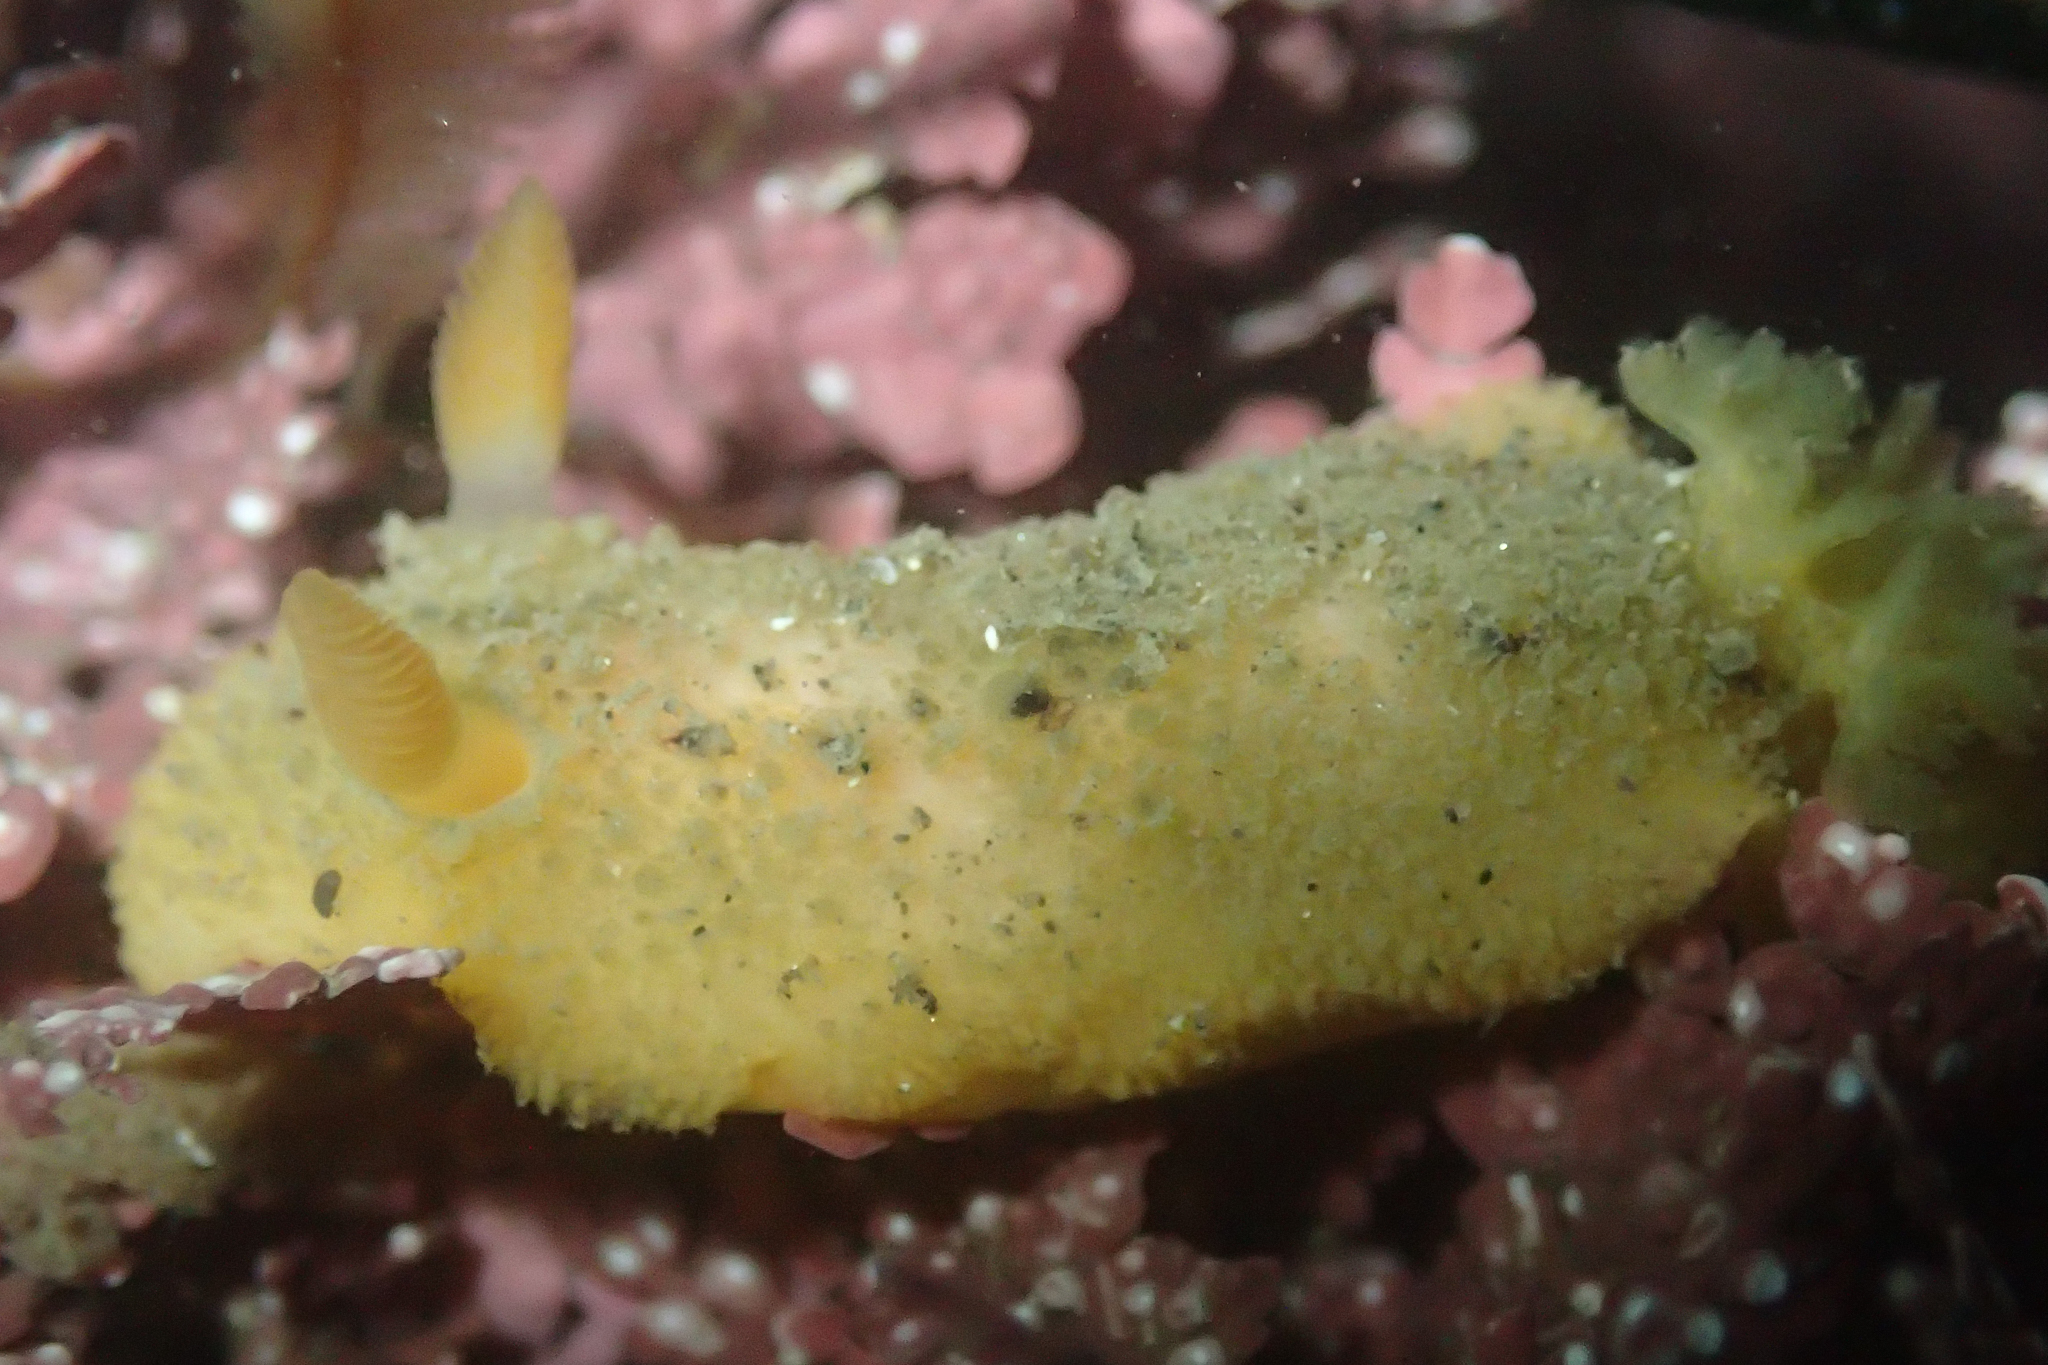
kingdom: Animalia
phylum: Mollusca
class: Gastropoda
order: Nudibranchia
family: Dorididae
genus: Doris
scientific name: Doris montereyensis
